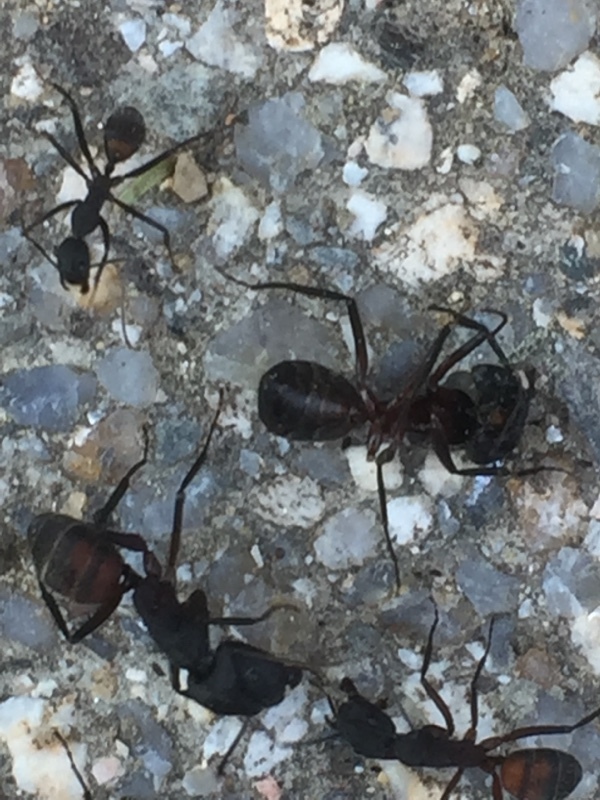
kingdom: Animalia
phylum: Arthropoda
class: Insecta
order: Hymenoptera
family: Formicidae
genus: Camponotus
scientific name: Camponotus cruentatus
